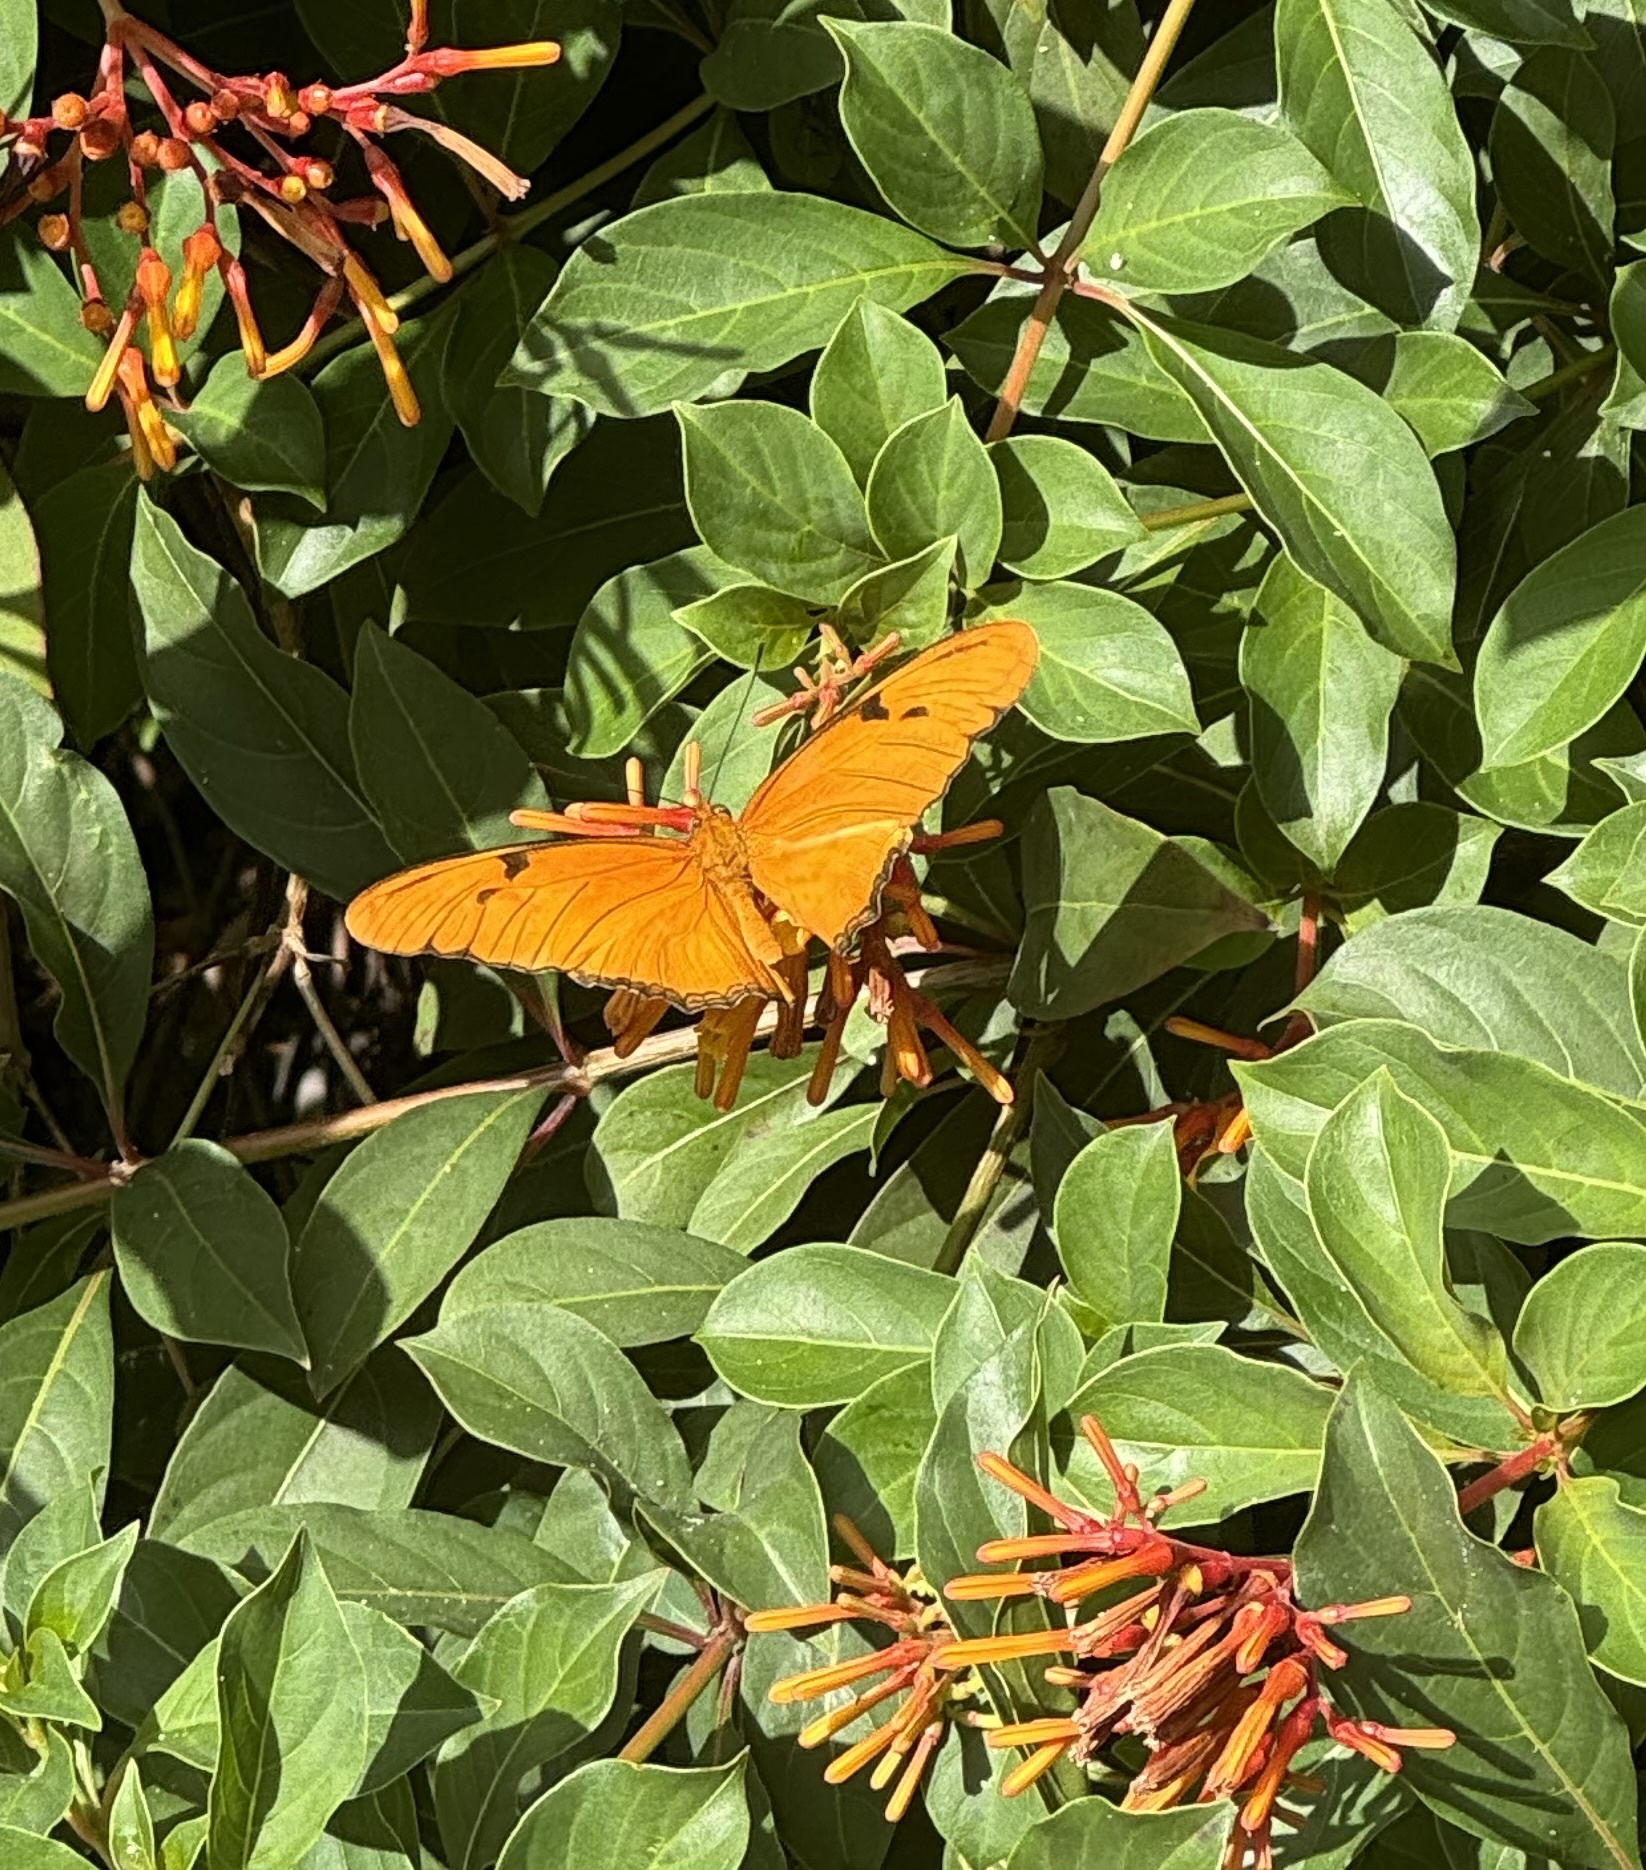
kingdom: Animalia
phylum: Arthropoda
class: Insecta
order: Lepidoptera
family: Nymphalidae
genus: Dryas
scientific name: Dryas iulia
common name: Flambeau
